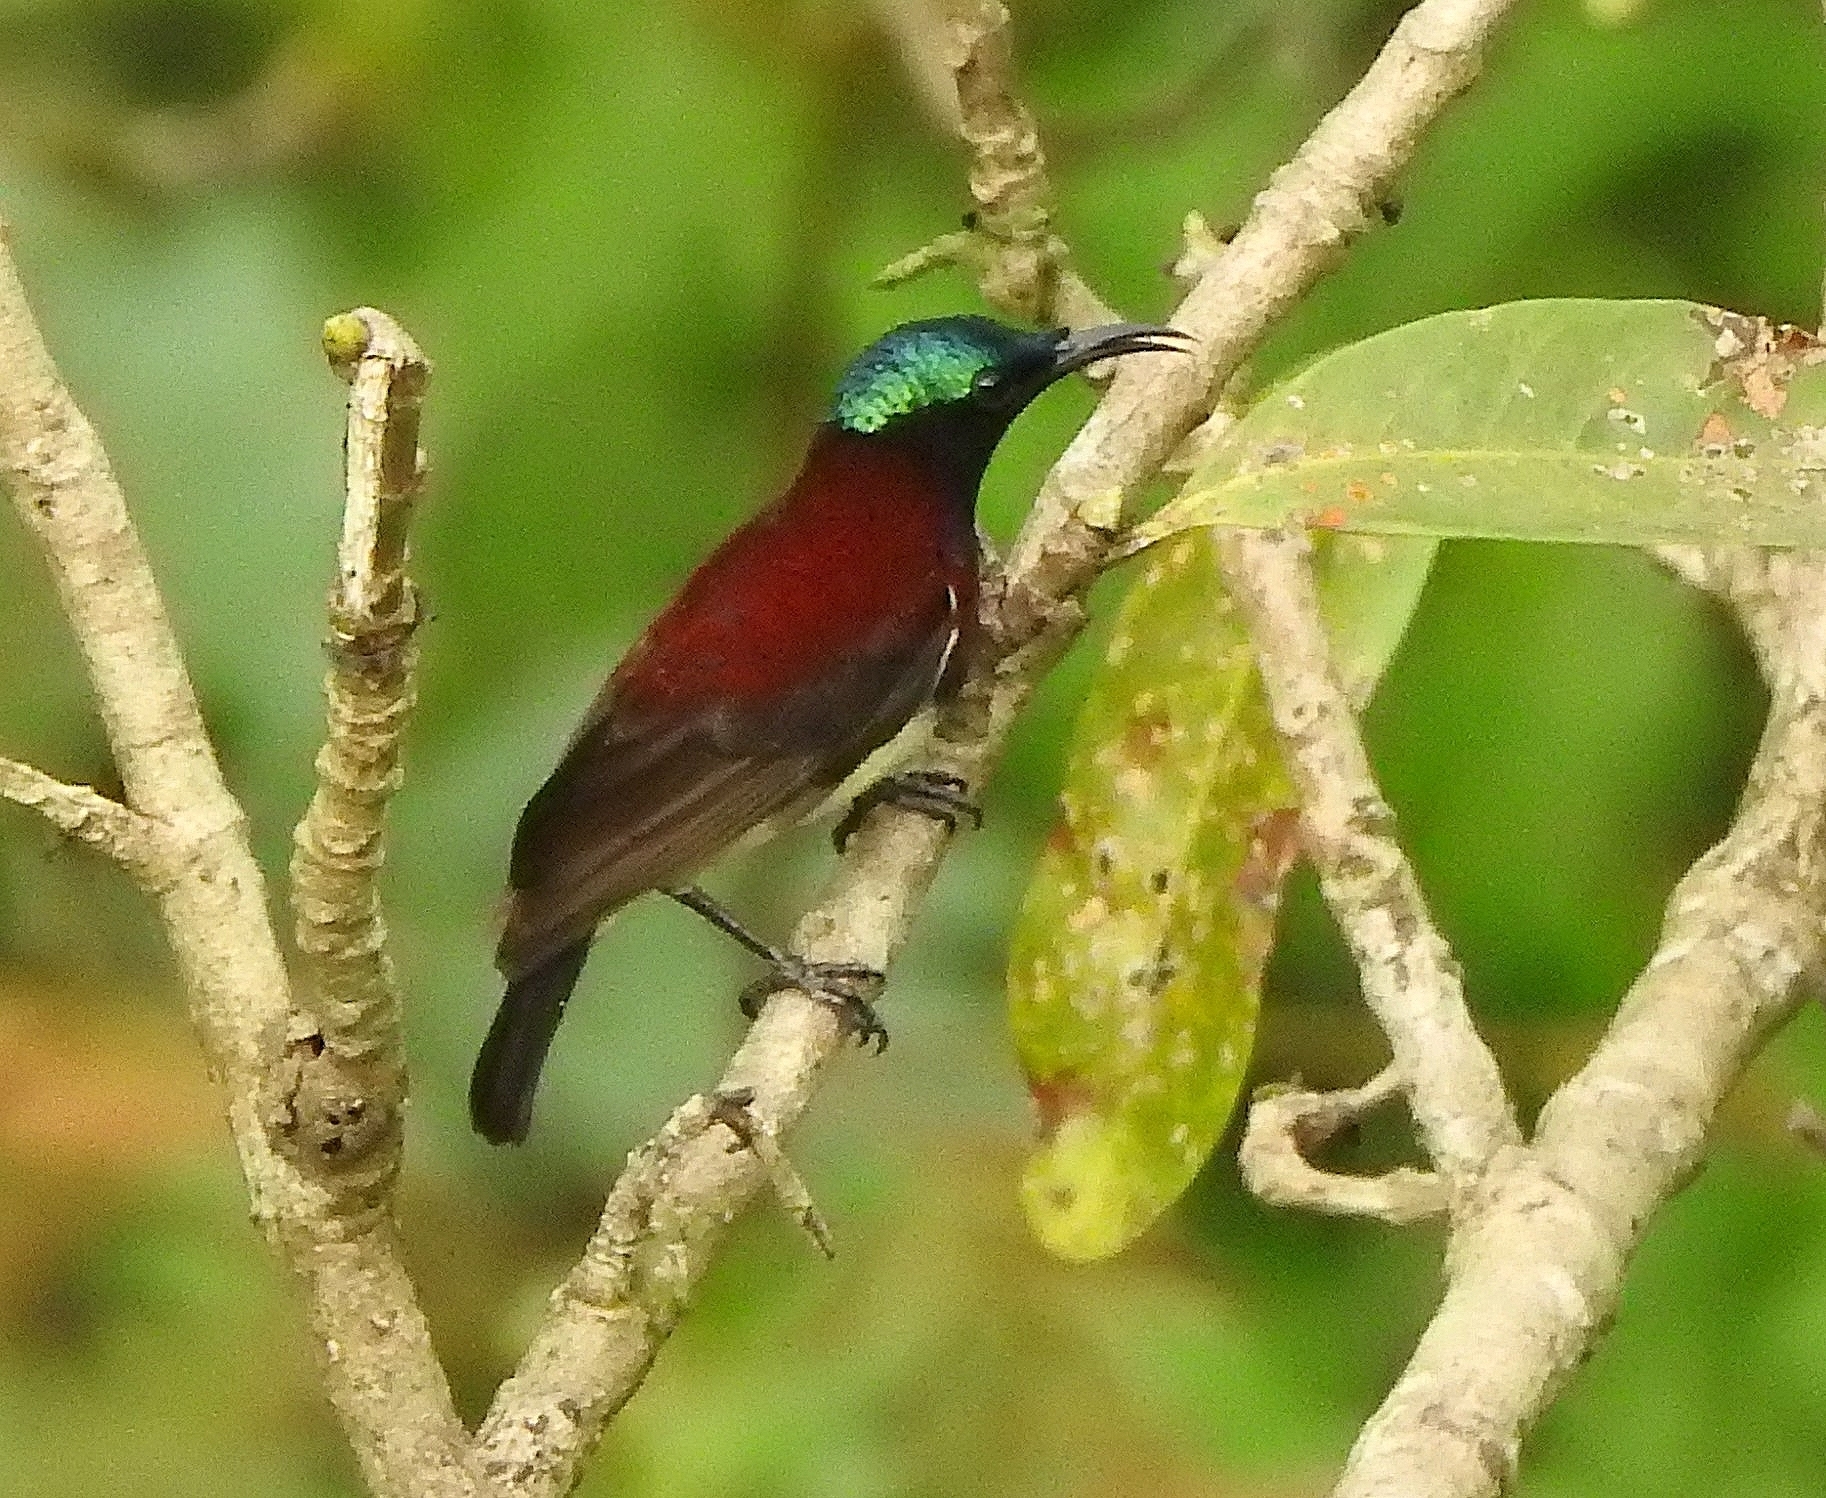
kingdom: Animalia
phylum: Chordata
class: Aves
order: Passeriformes
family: Nectariniidae
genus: Leptocoma
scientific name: Leptocoma minima
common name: Crimson-backed sunbird
